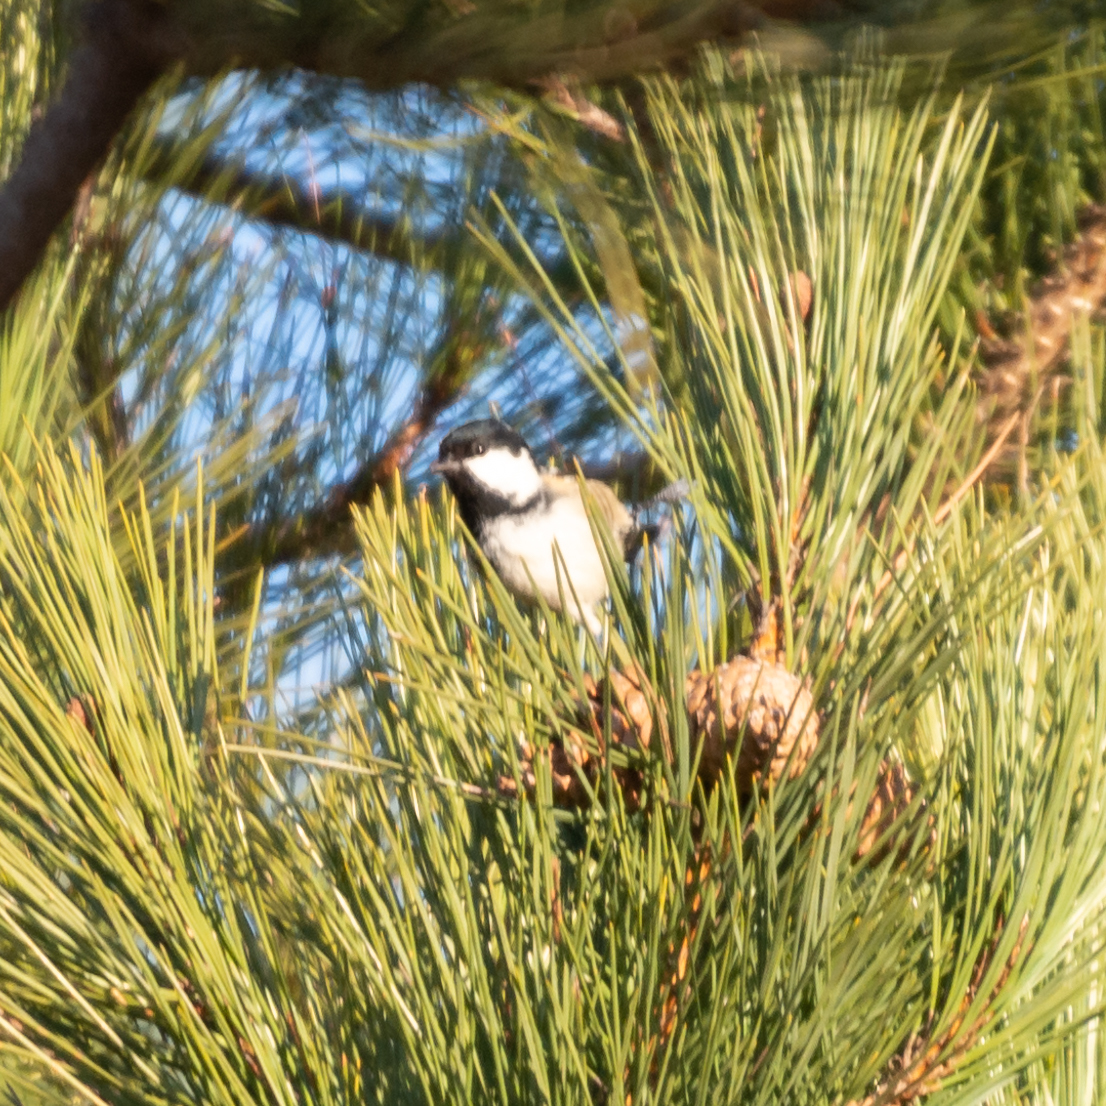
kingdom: Animalia
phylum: Chordata
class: Aves
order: Passeriformes
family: Paridae
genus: Periparus
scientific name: Periparus ater
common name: Coal tit
